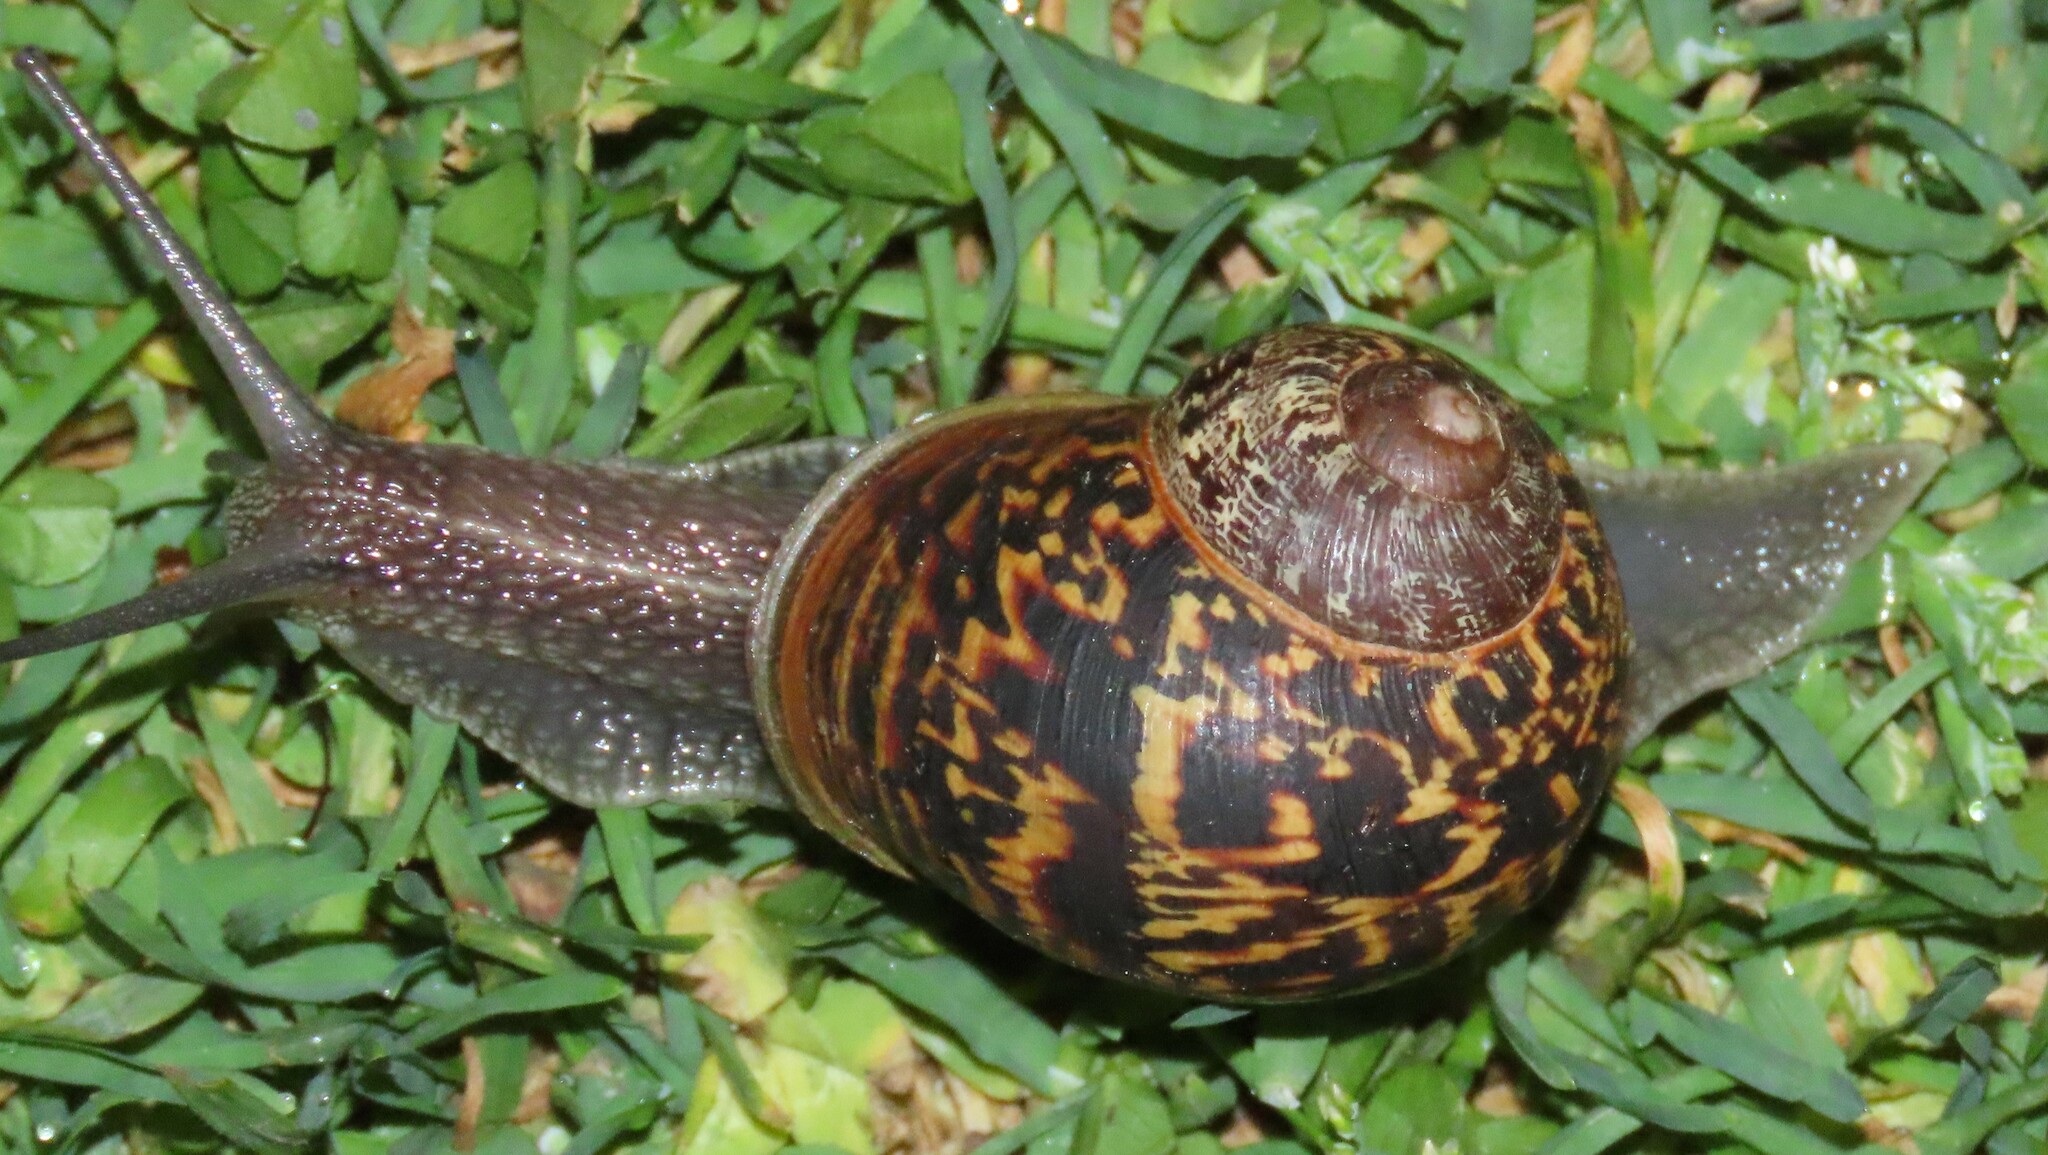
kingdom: Animalia
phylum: Mollusca
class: Gastropoda
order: Stylommatophora
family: Helicidae
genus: Cornu
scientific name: Cornu aspersum
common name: Brown garden snail
